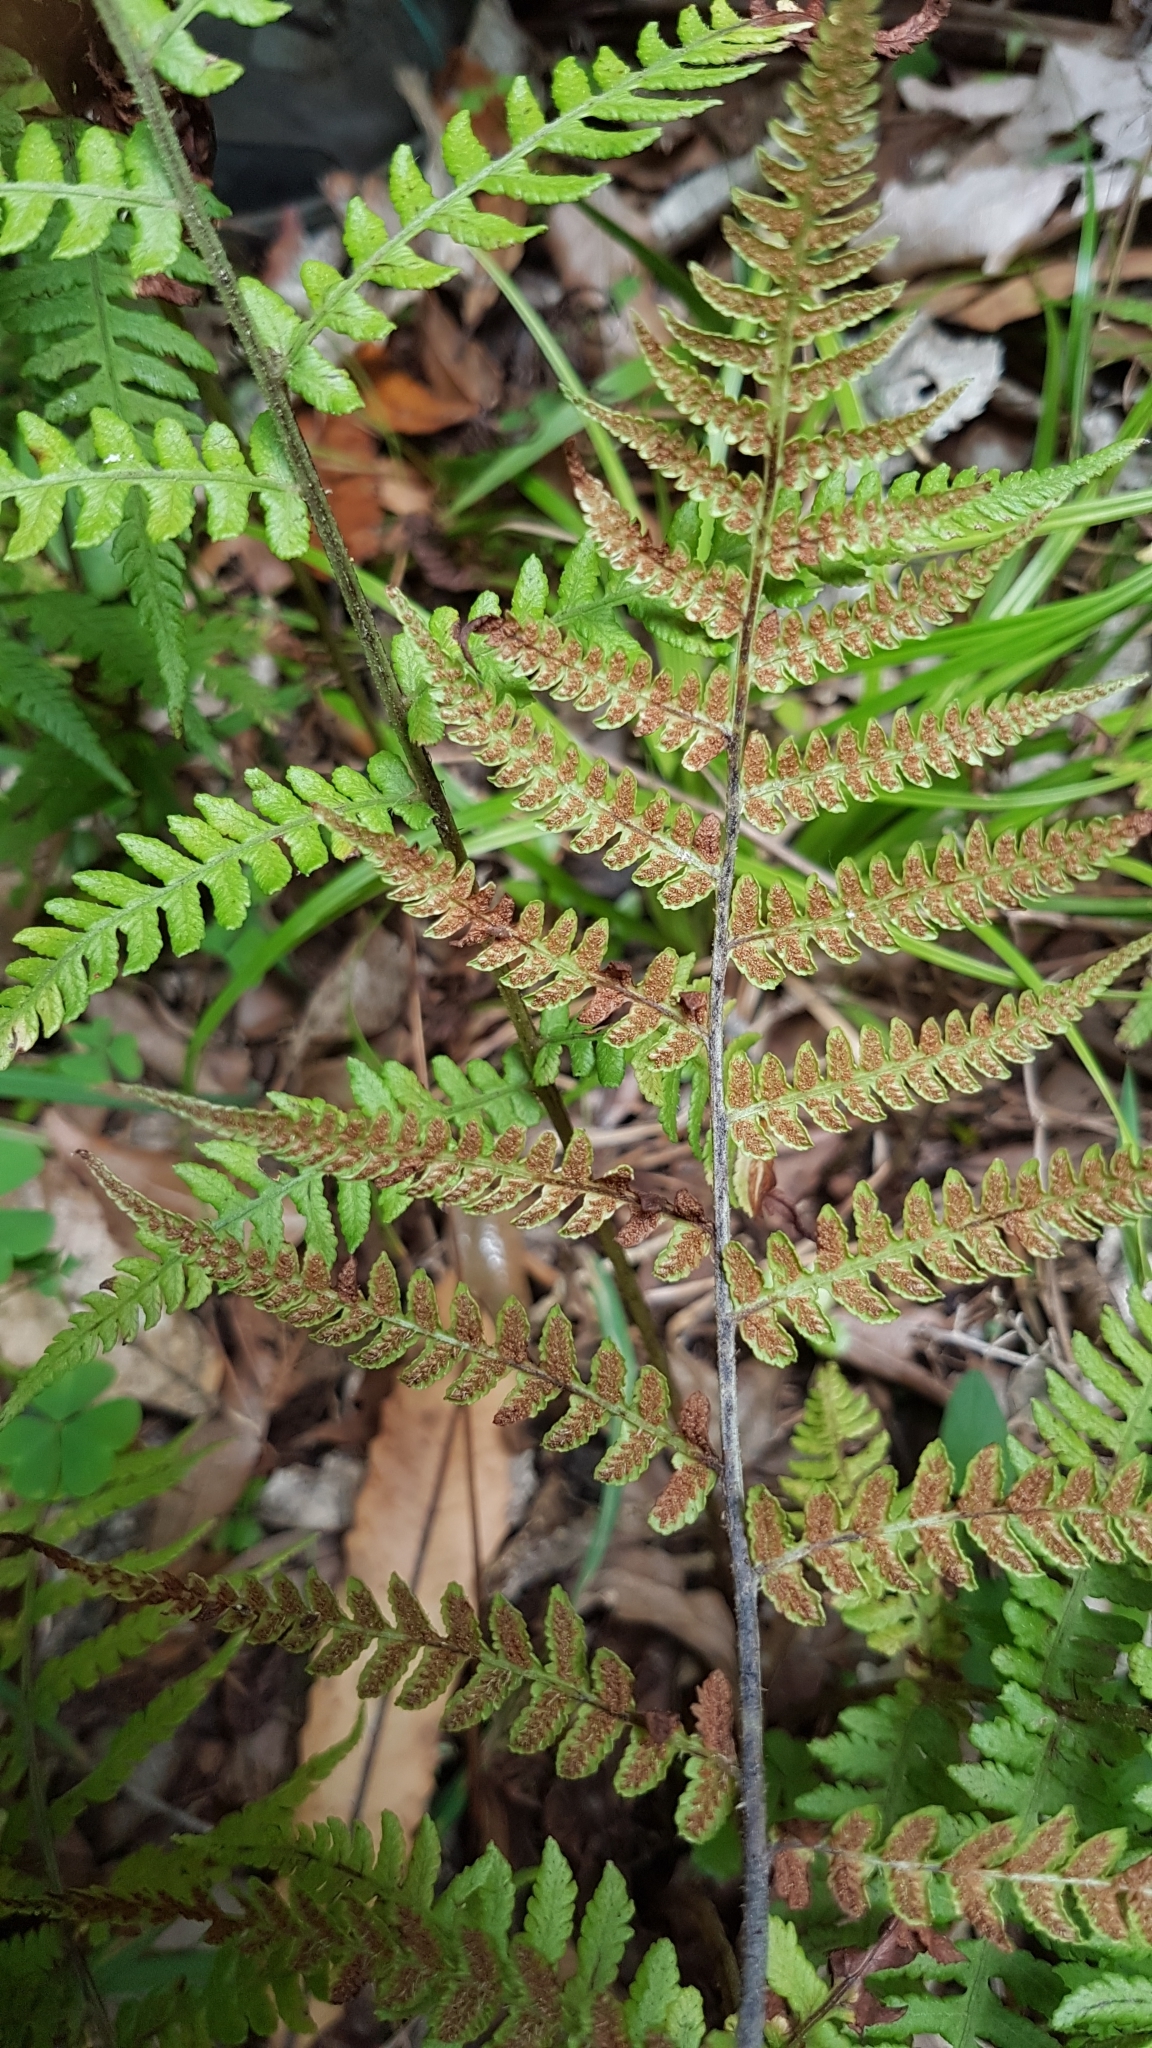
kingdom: Plantae
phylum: Tracheophyta
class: Polypodiopsida
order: Polypodiales
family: Athyriaceae
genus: Deparia
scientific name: Deparia petersenii
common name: Japanese false spleenwort
